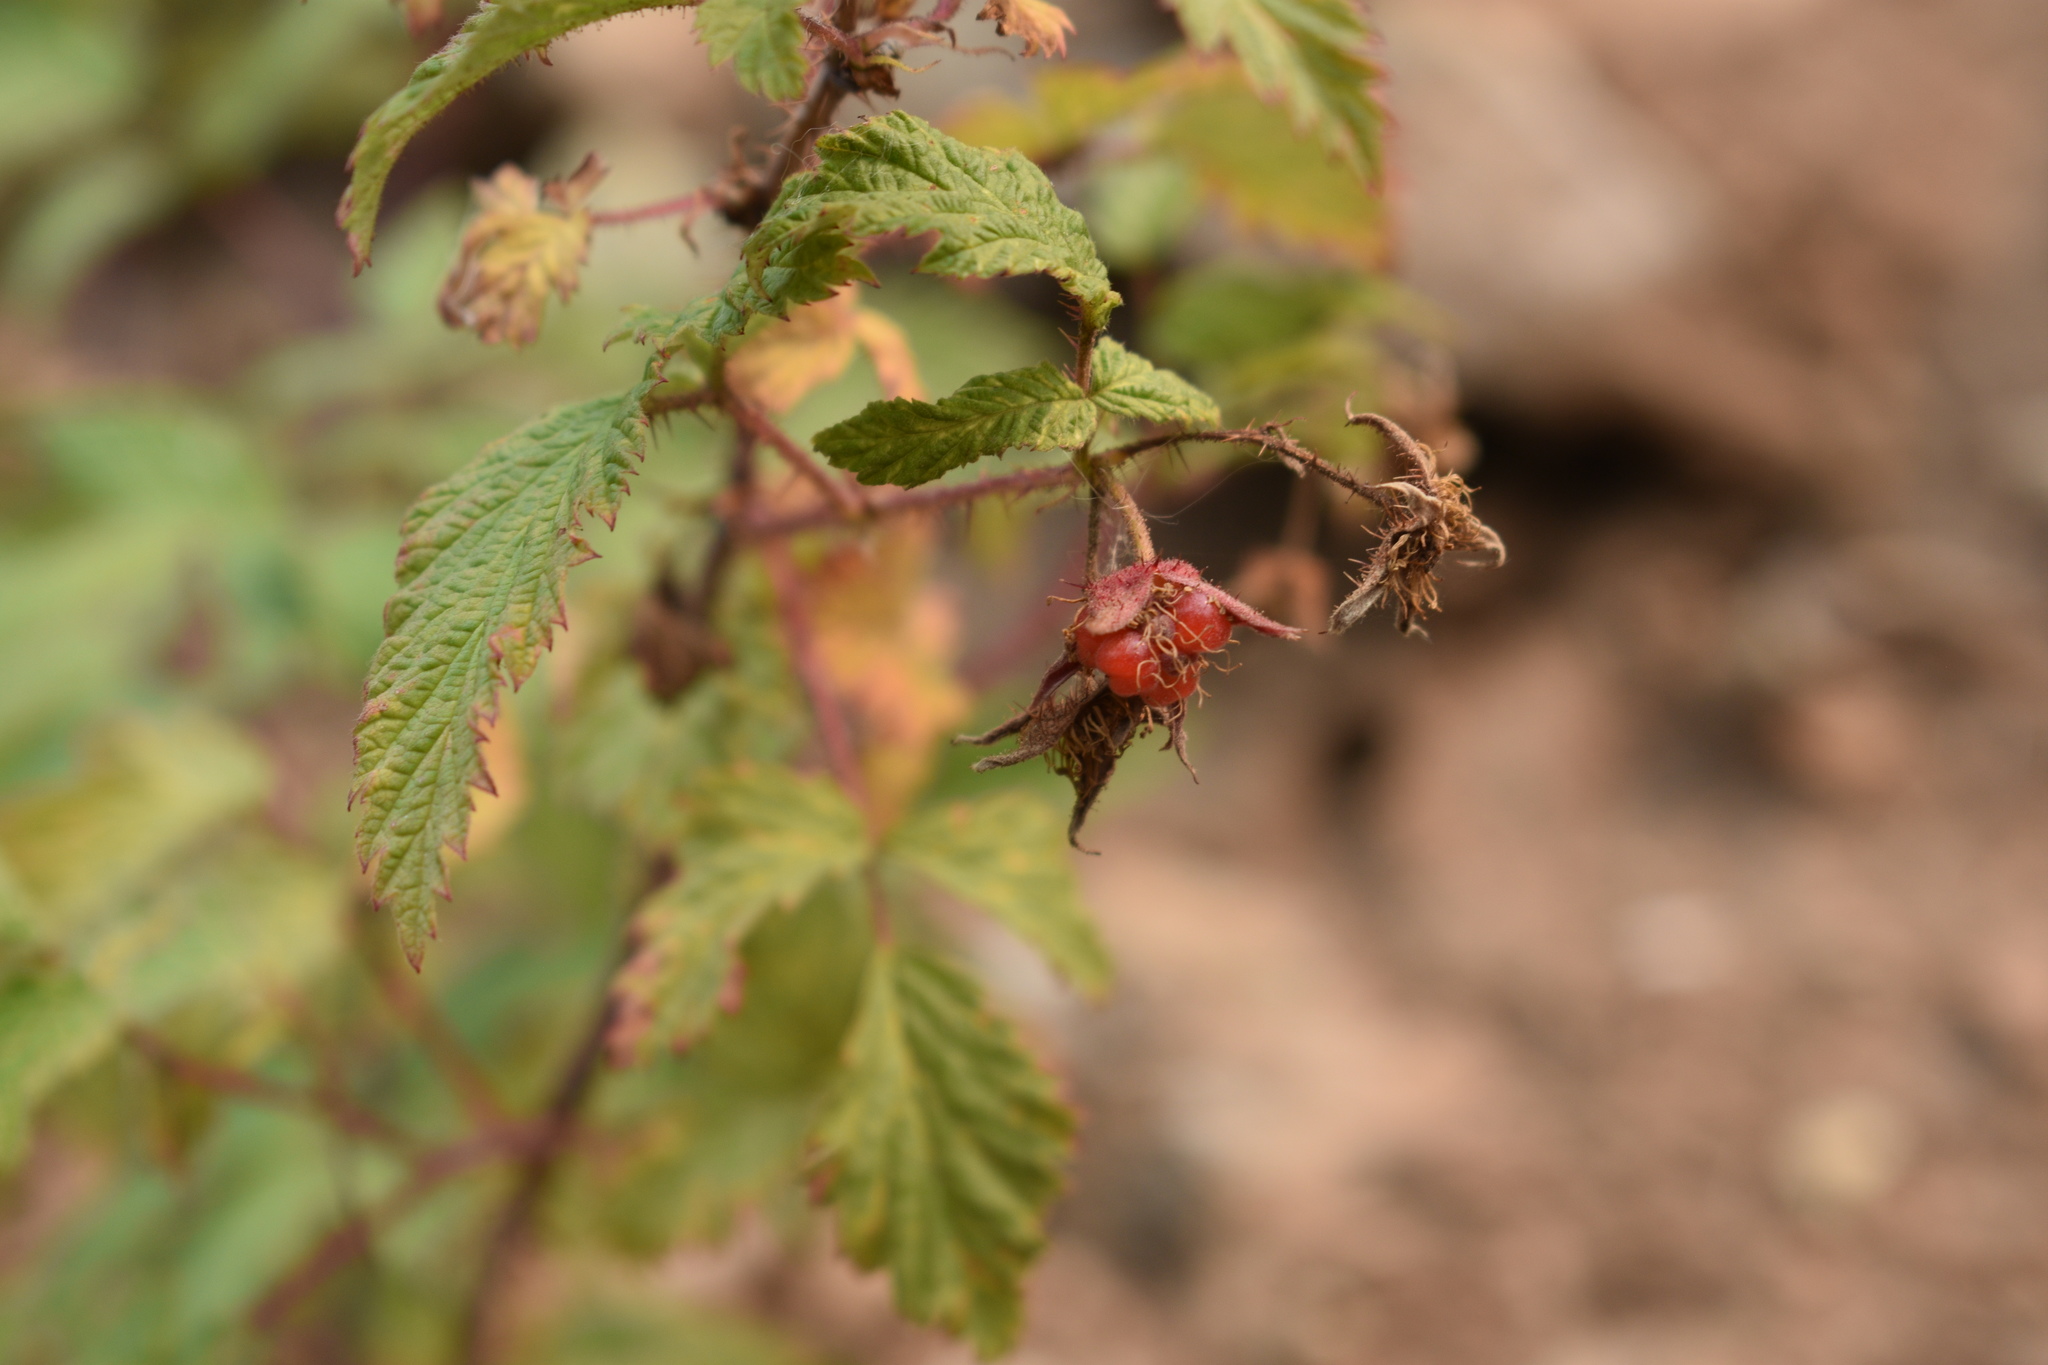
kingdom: Plantae
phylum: Tracheophyta
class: Magnoliopsida
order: Rosales
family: Rosaceae
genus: Rubus
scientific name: Rubus idaeus
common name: Raspberry
